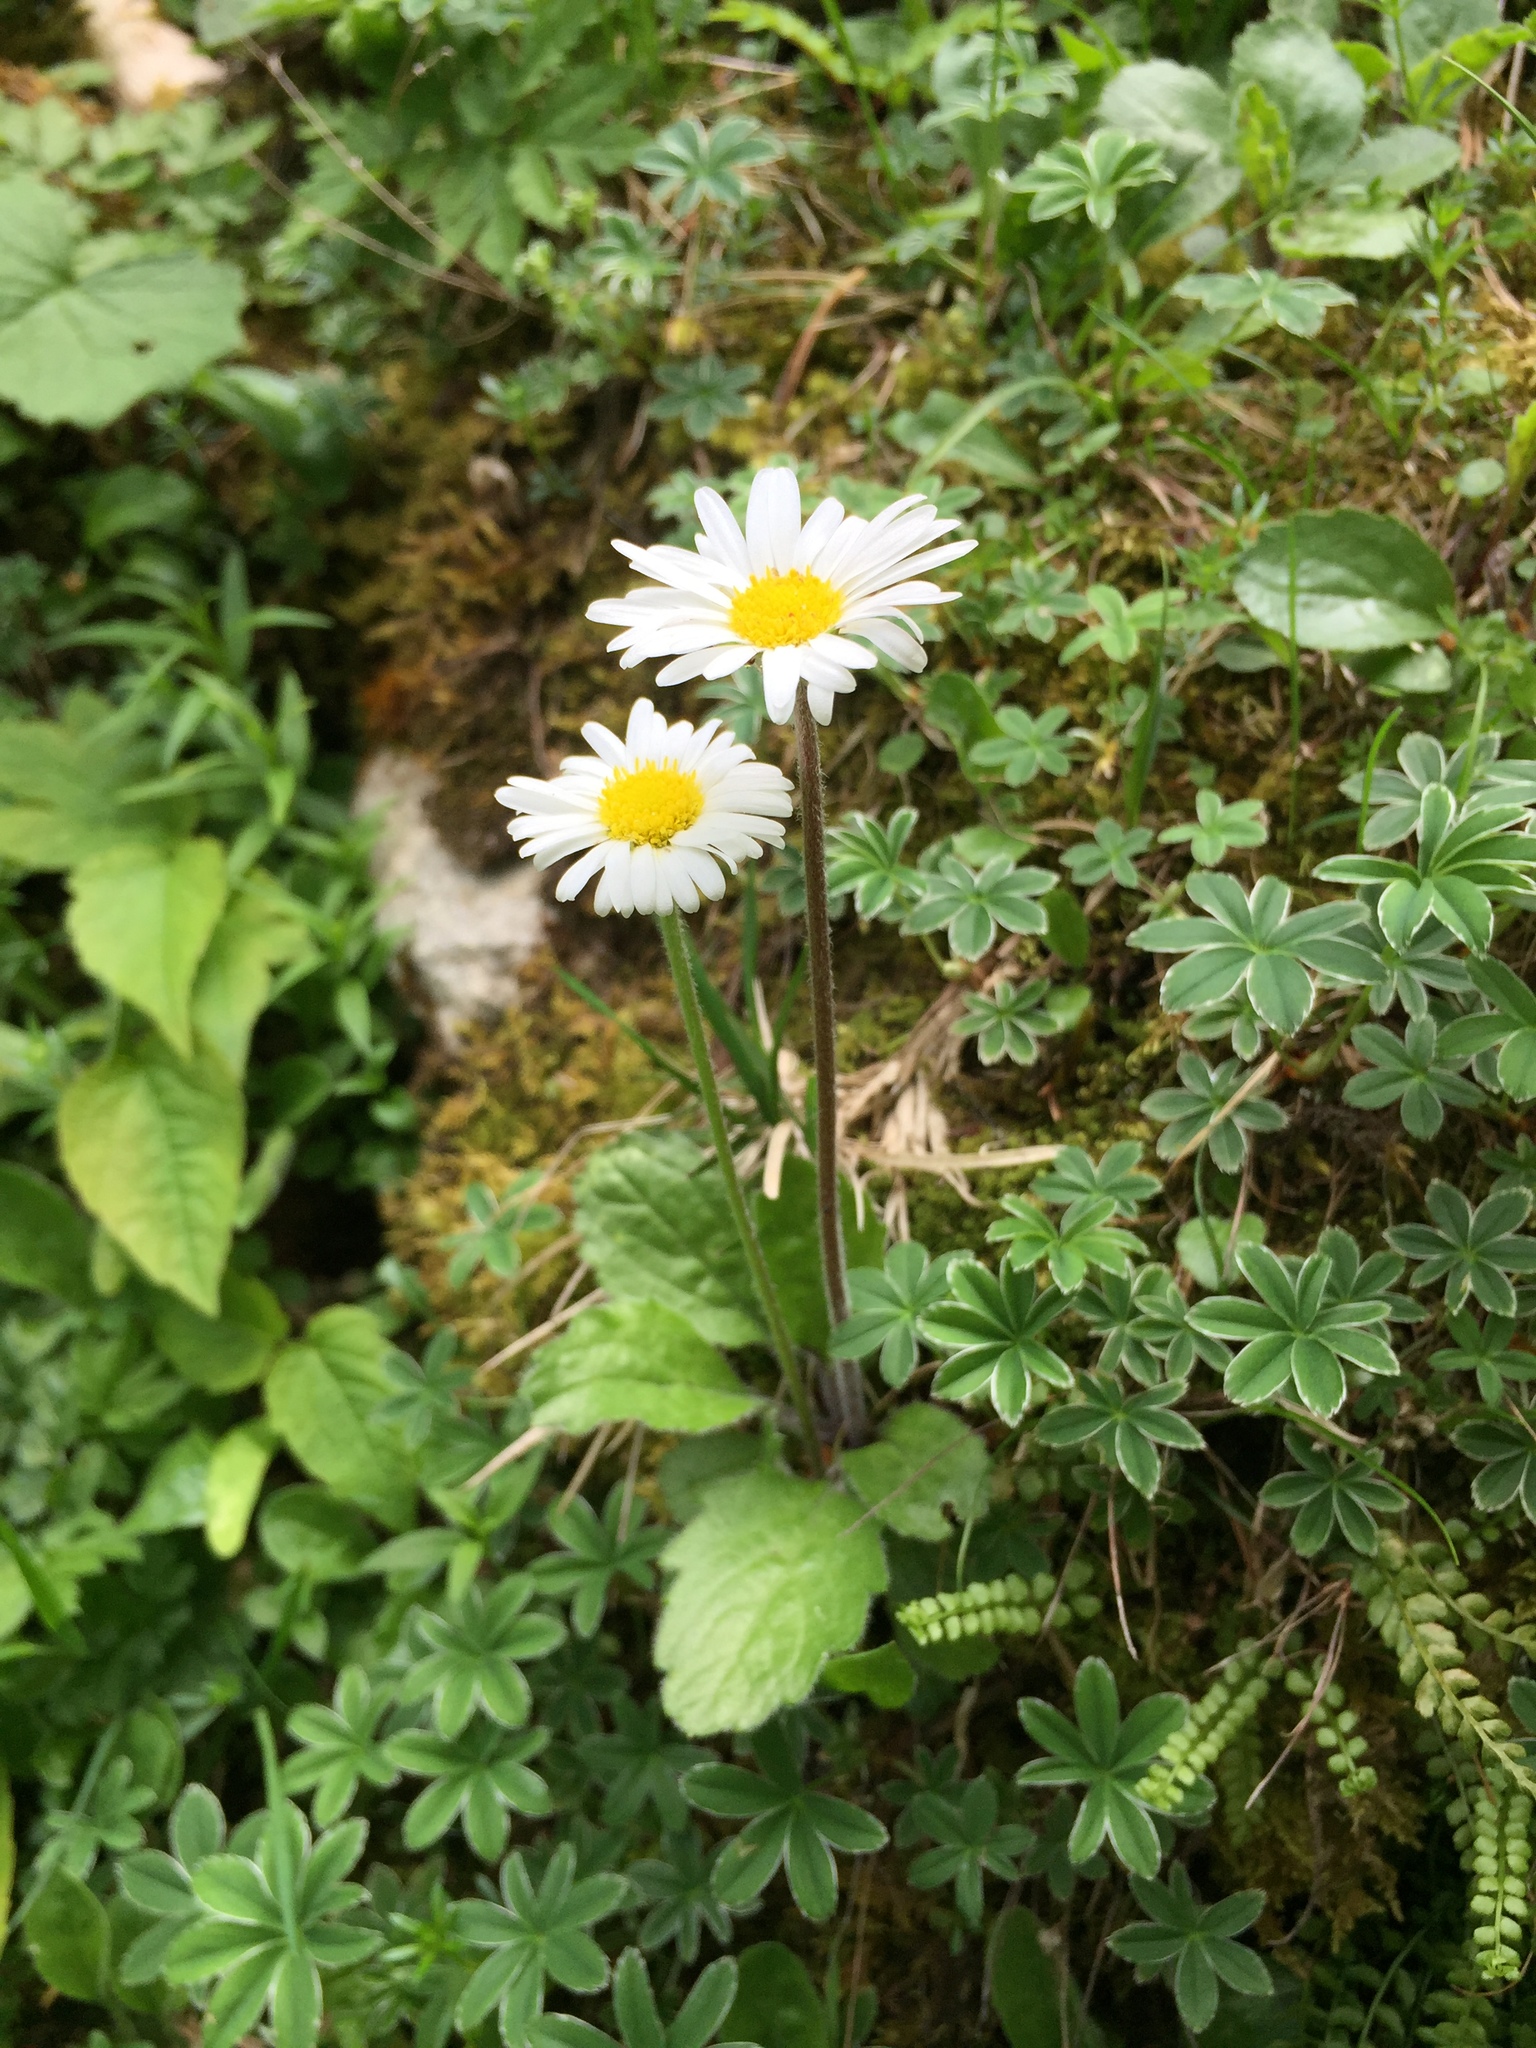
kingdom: Plantae
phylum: Tracheophyta
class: Magnoliopsida
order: Asterales
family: Asteraceae
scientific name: Asteraceae
